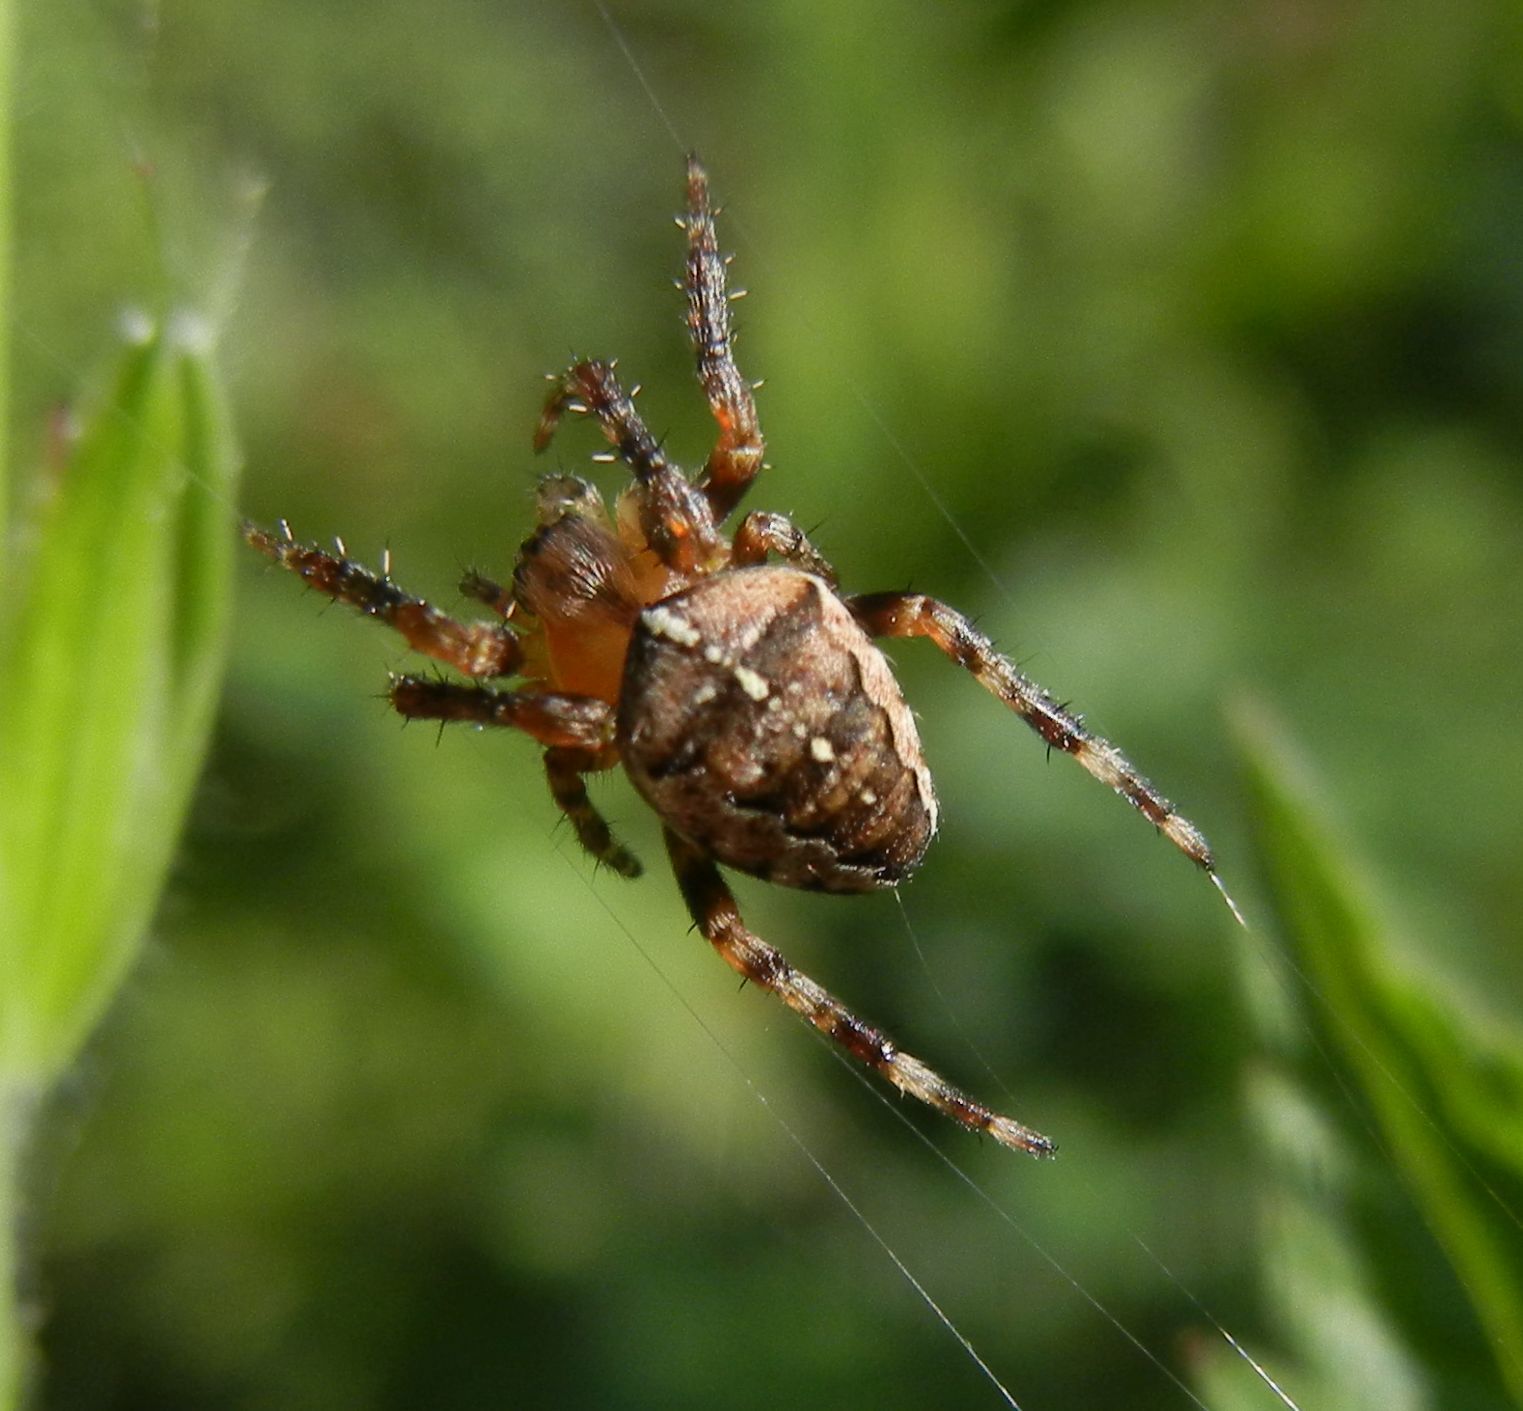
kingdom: Animalia
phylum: Arthropoda
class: Arachnida
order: Araneae
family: Araneidae
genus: Araneus
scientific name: Araneus diadematus
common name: Cross orbweaver
